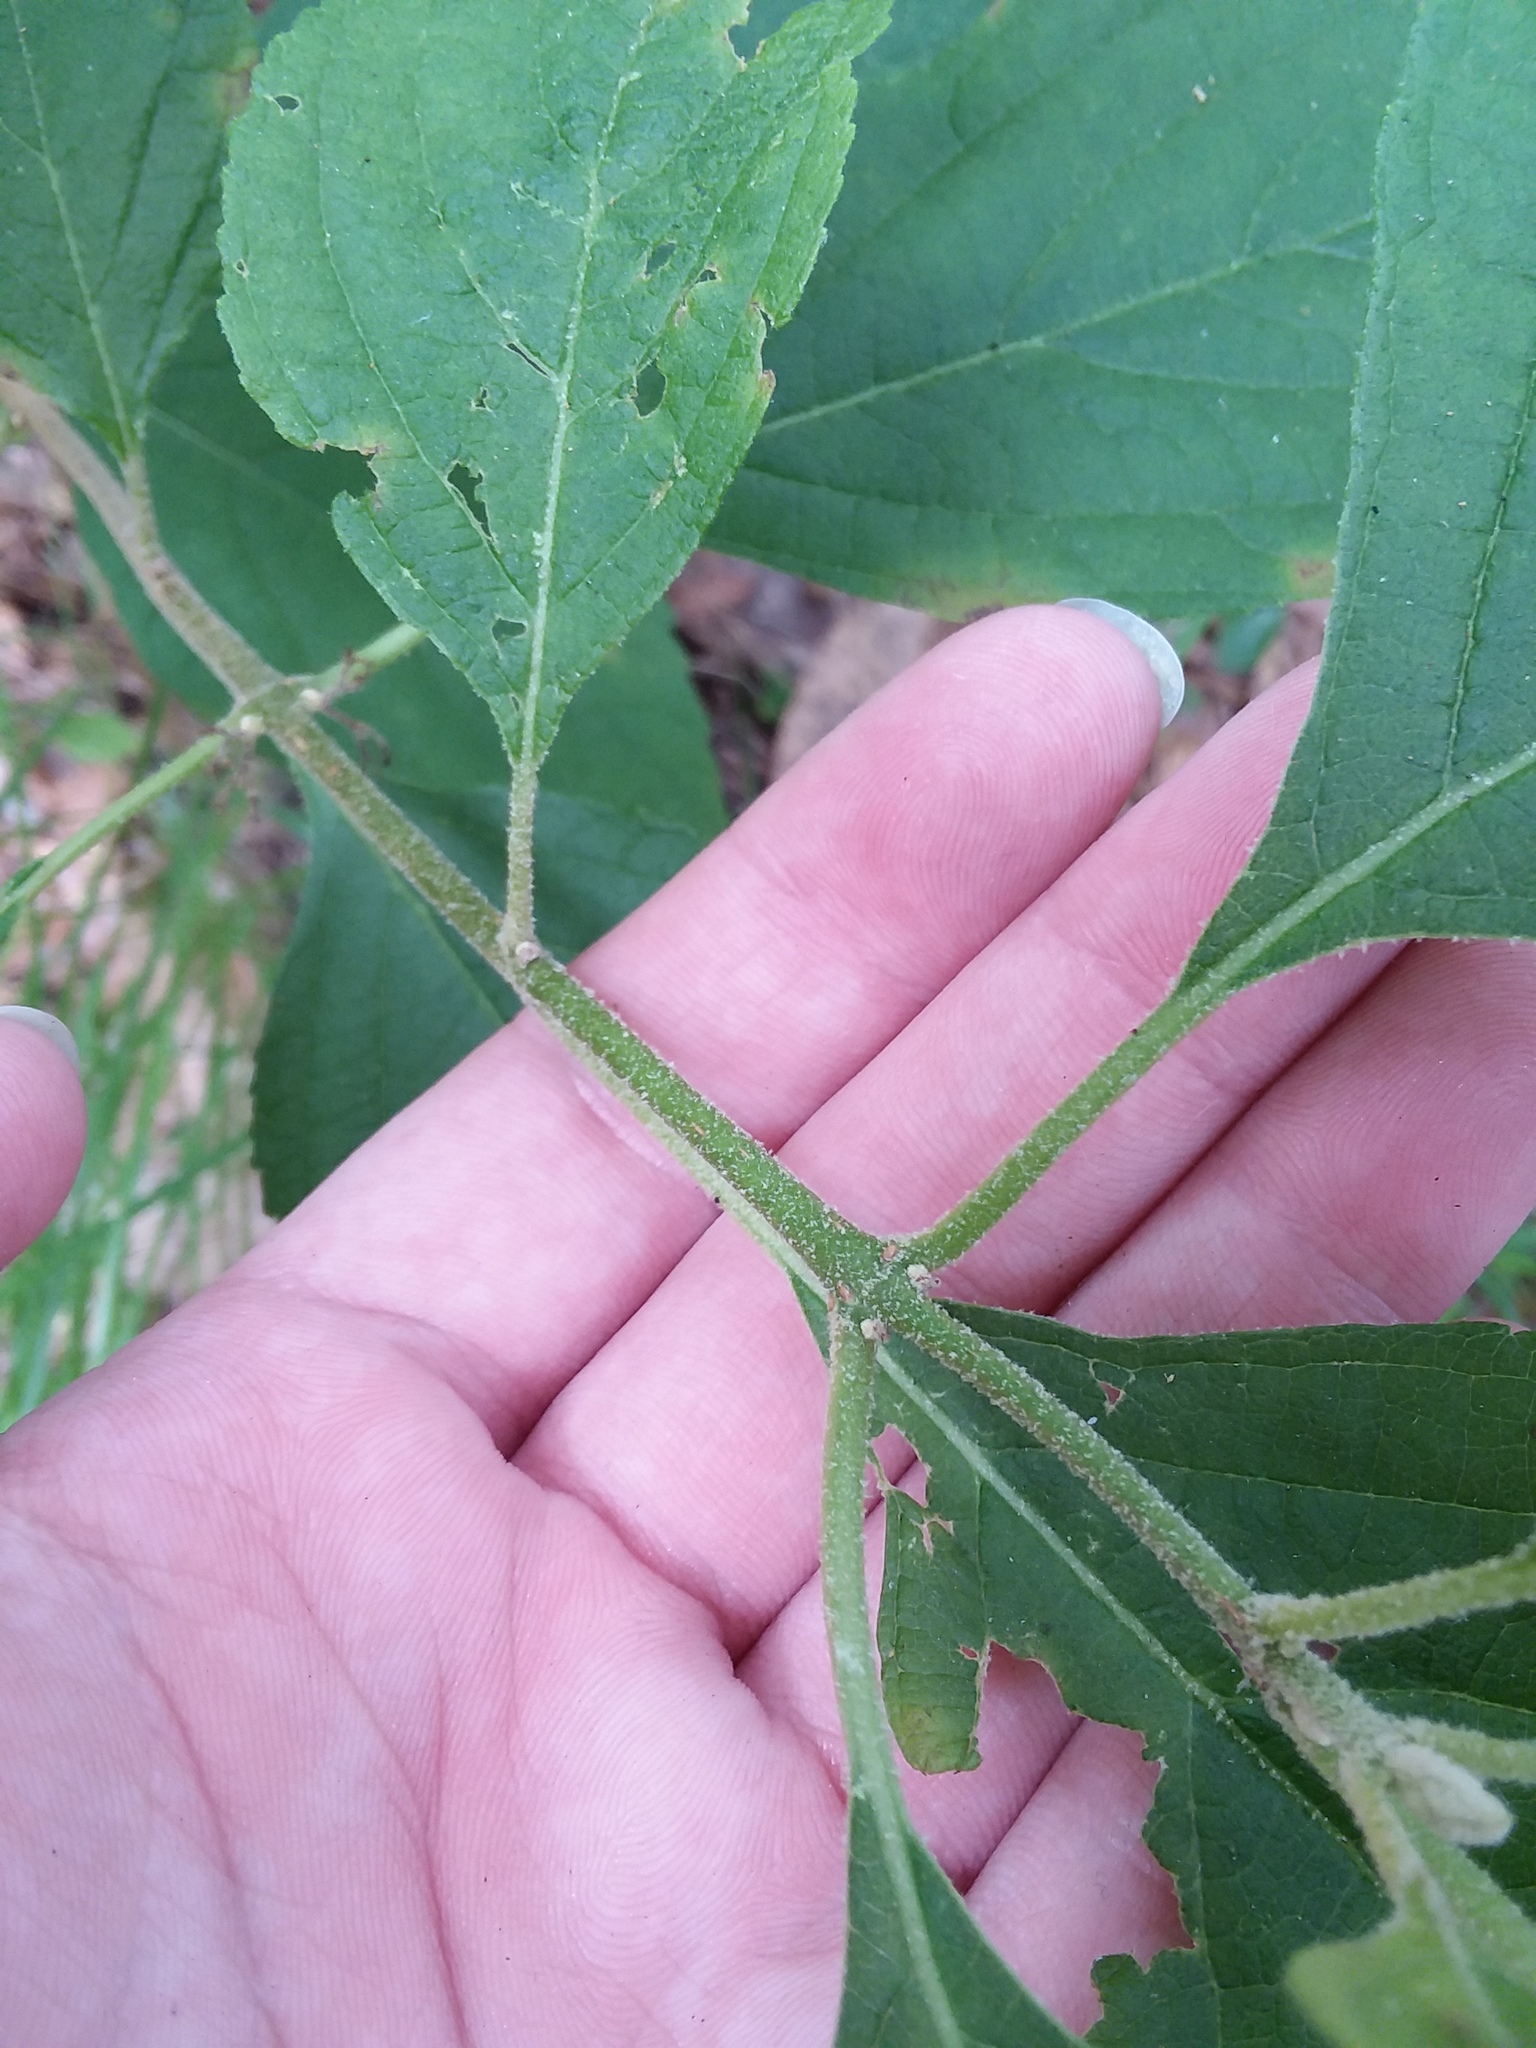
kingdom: Plantae
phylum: Tracheophyta
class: Magnoliopsida
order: Lamiales
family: Lamiaceae
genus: Callicarpa
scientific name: Callicarpa americana
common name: American beautyberry
